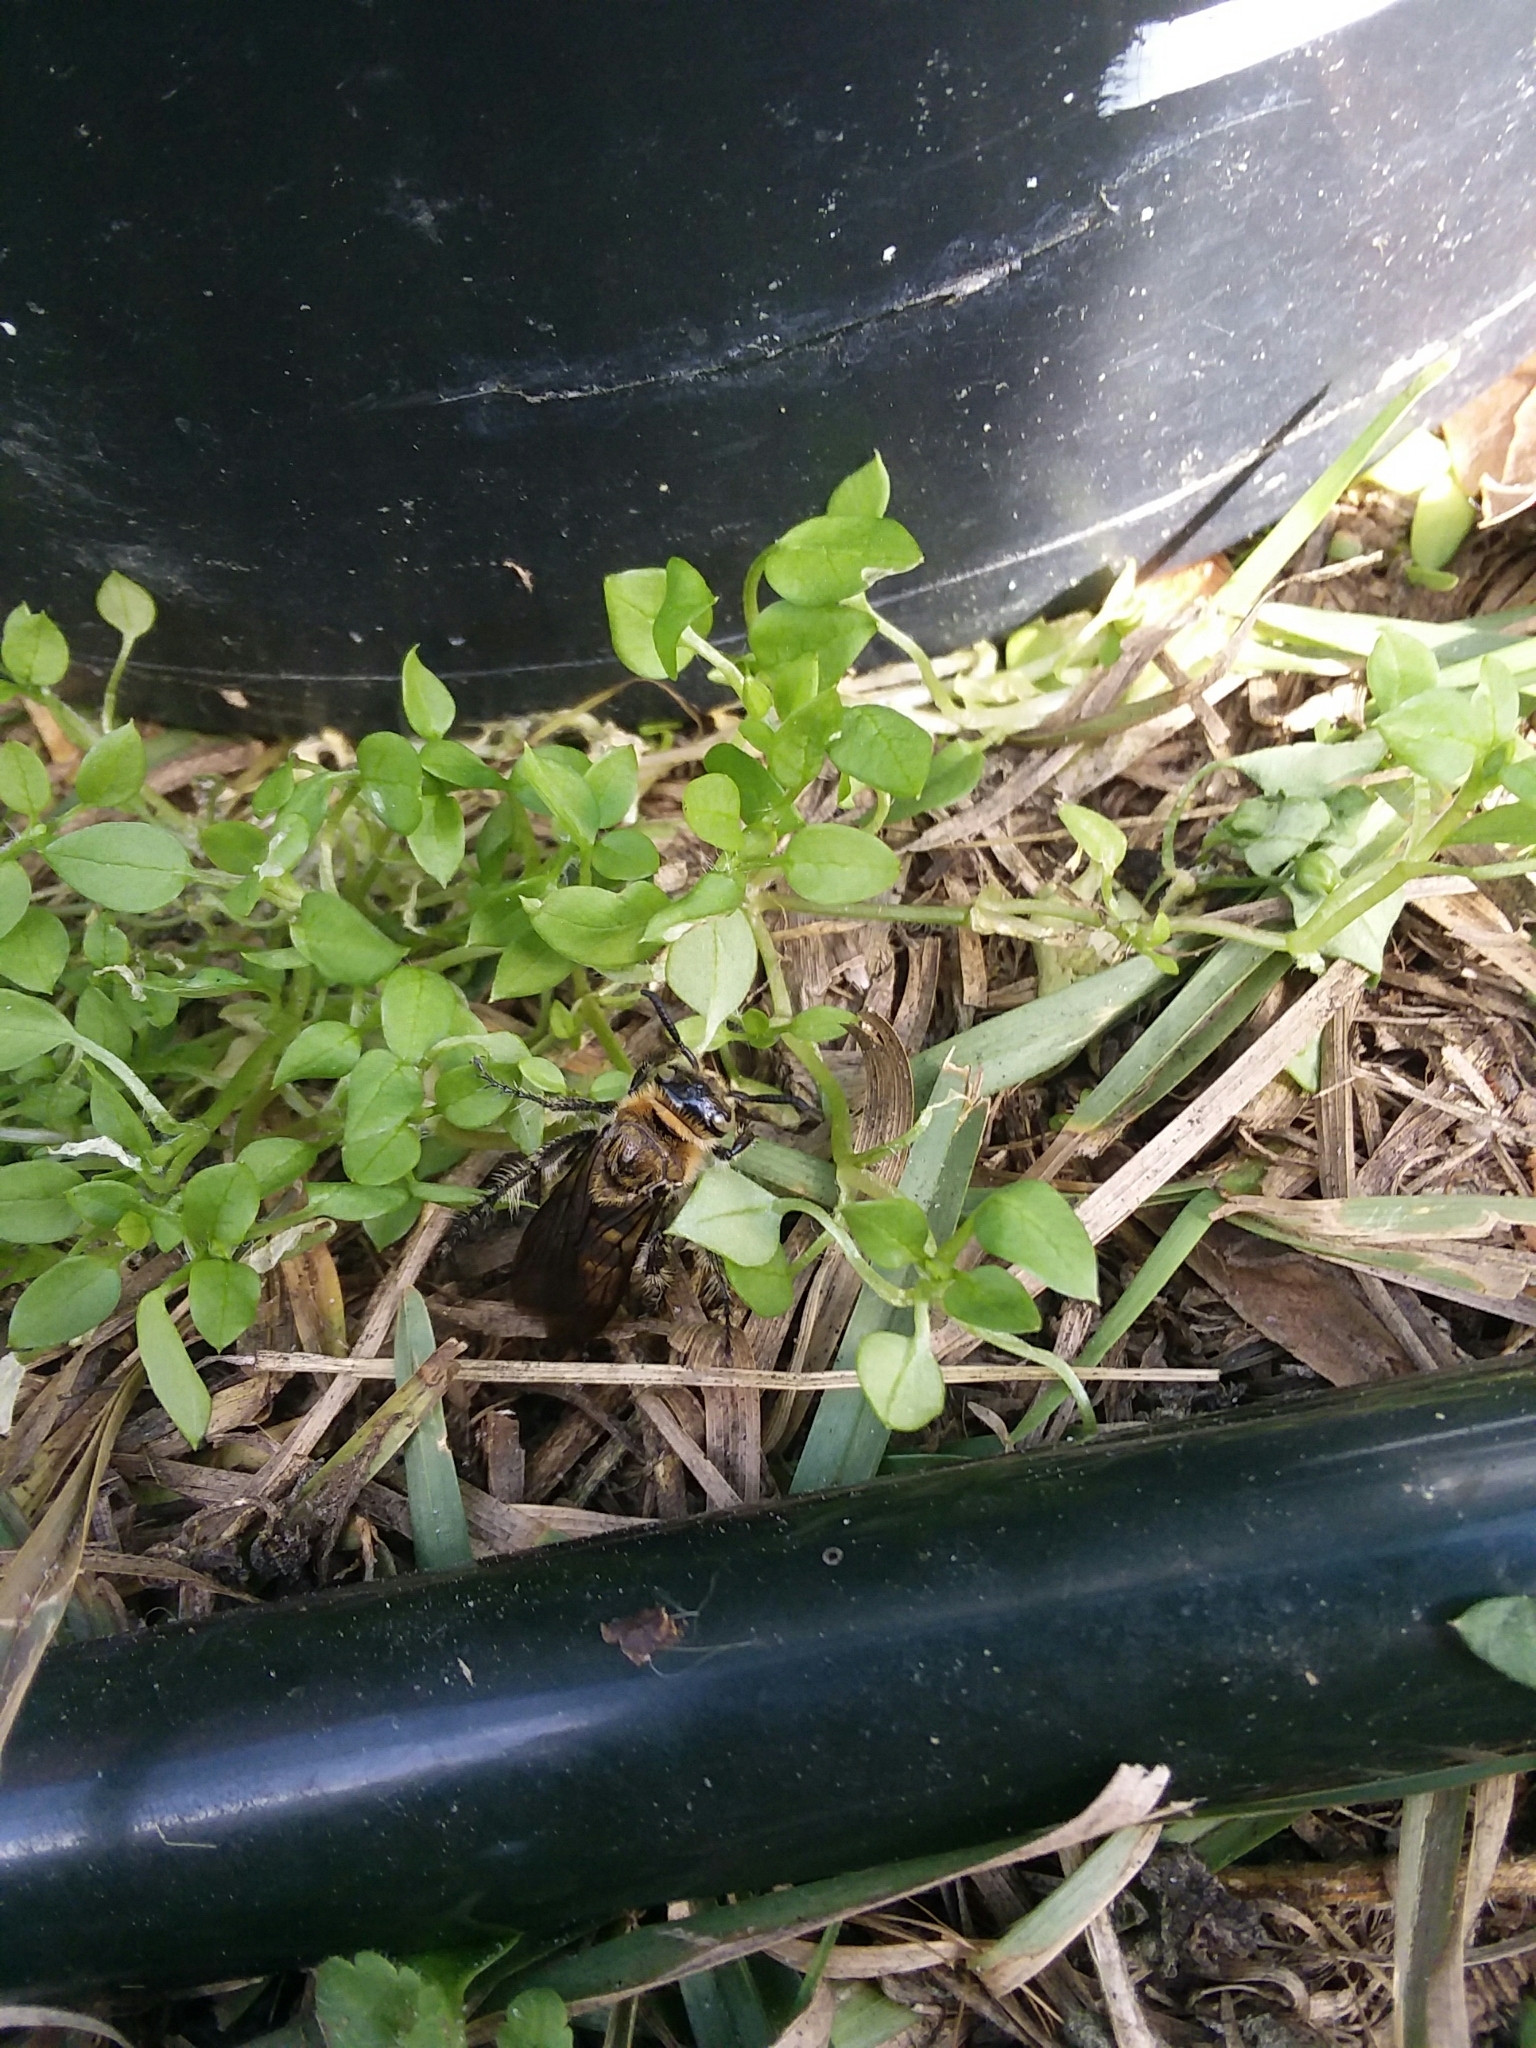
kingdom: Animalia
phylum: Arthropoda
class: Insecta
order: Hymenoptera
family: Scoliidae
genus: Dielis
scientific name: Dielis
